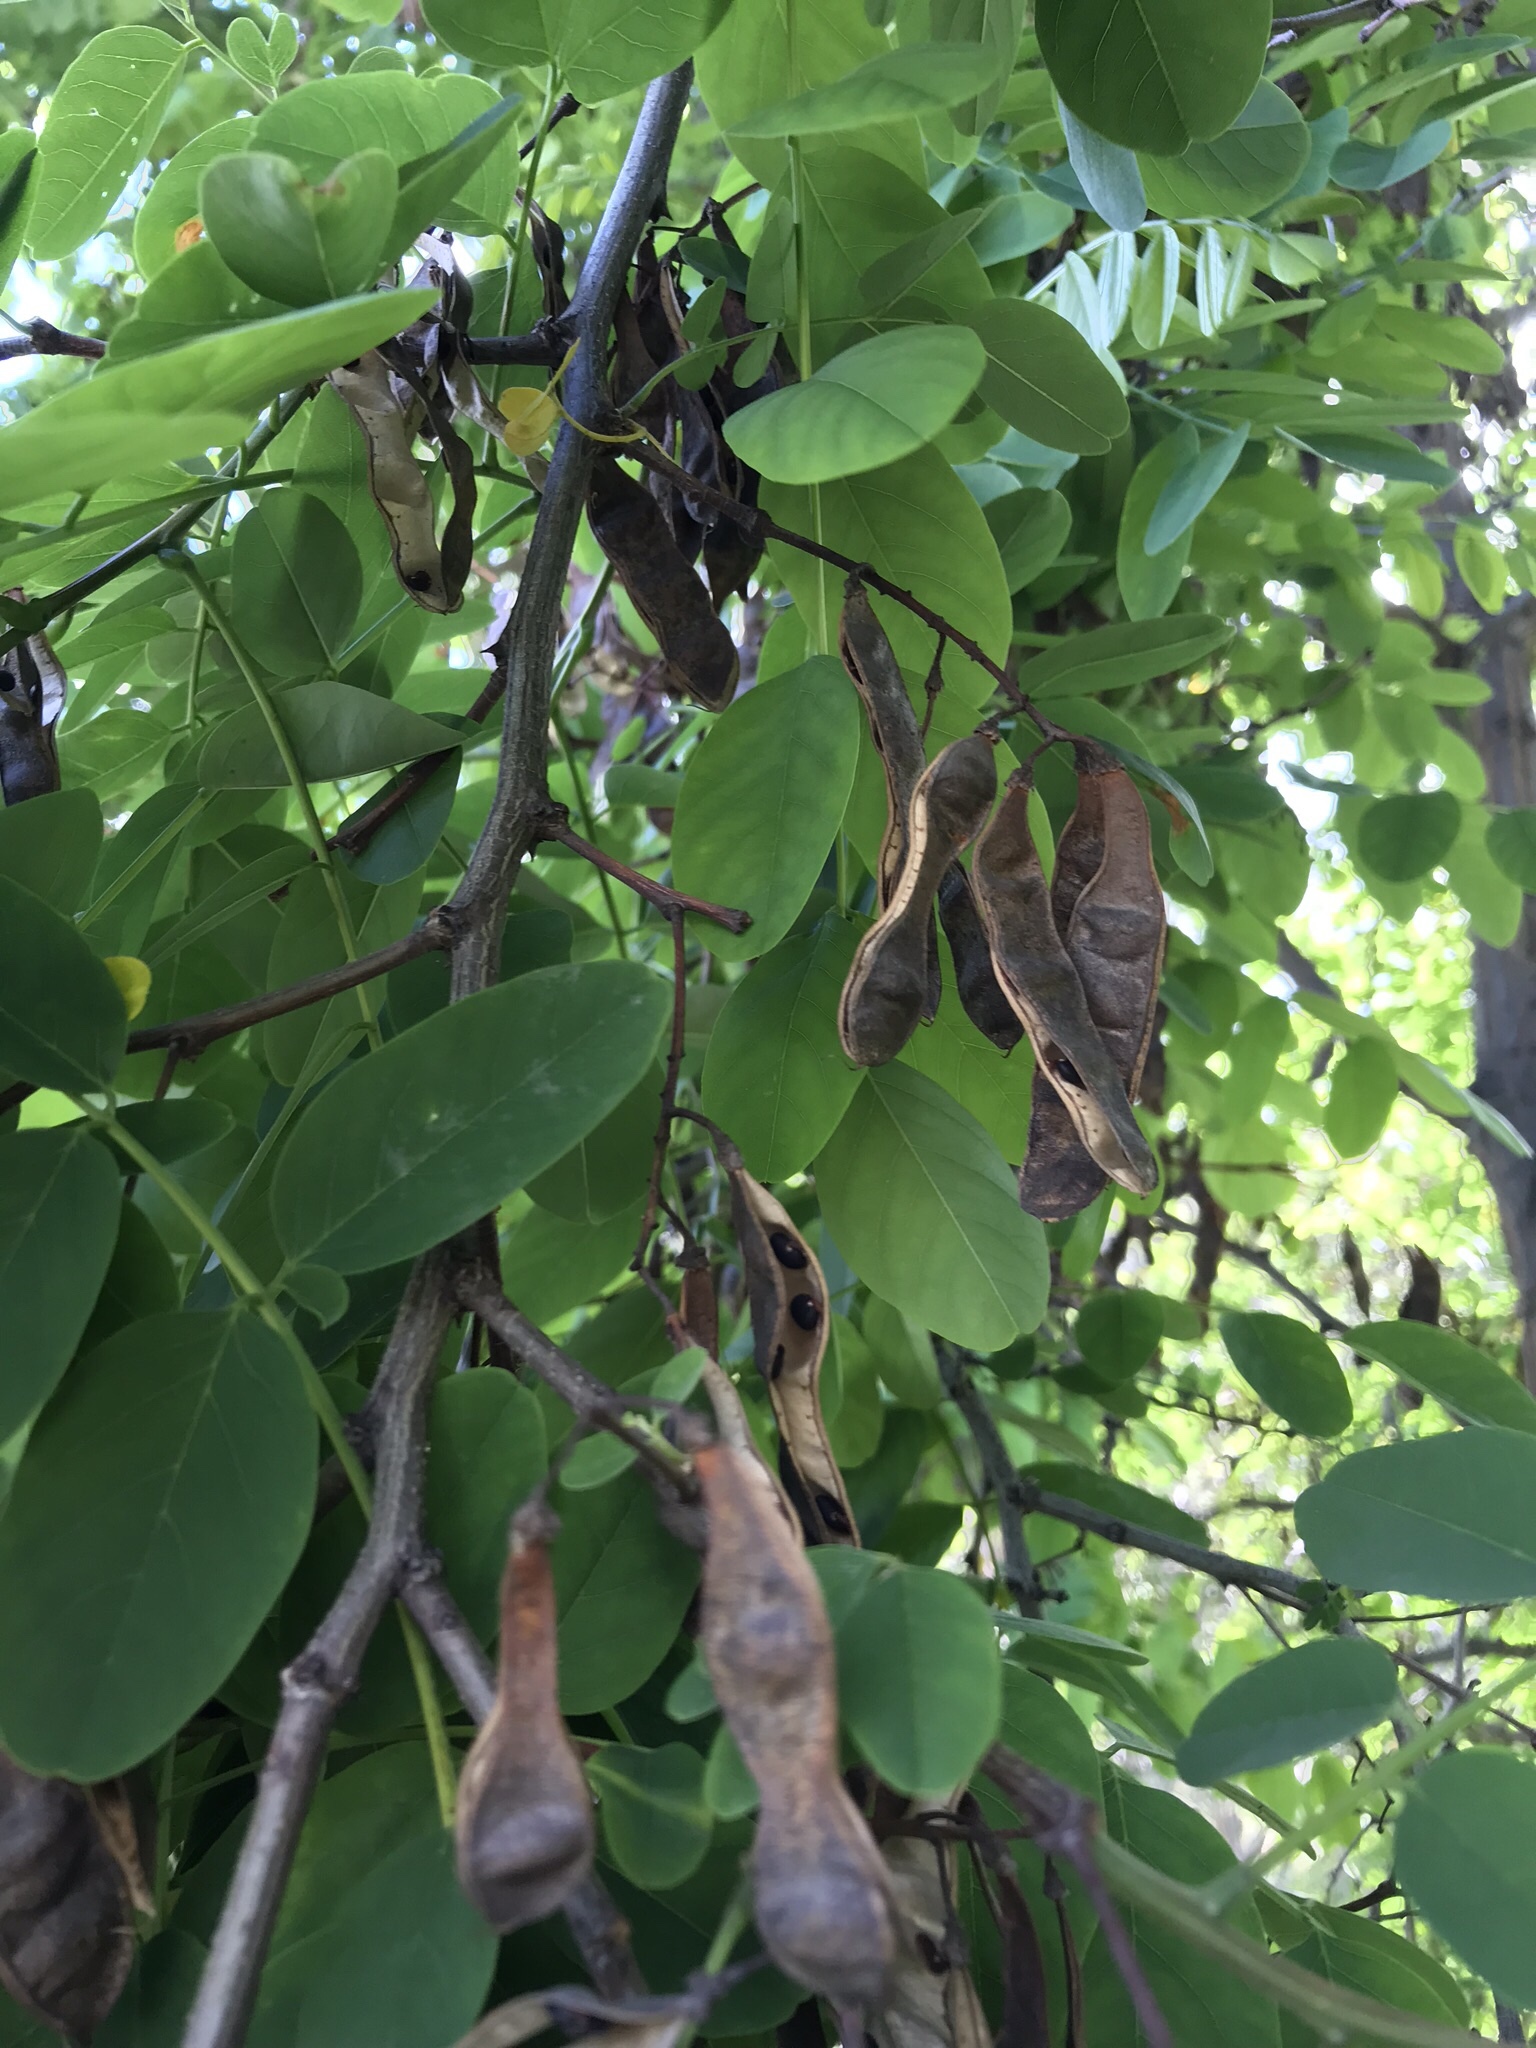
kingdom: Plantae
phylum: Tracheophyta
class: Magnoliopsida
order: Fabales
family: Fabaceae
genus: Robinia
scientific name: Robinia pseudoacacia
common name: Black locust
